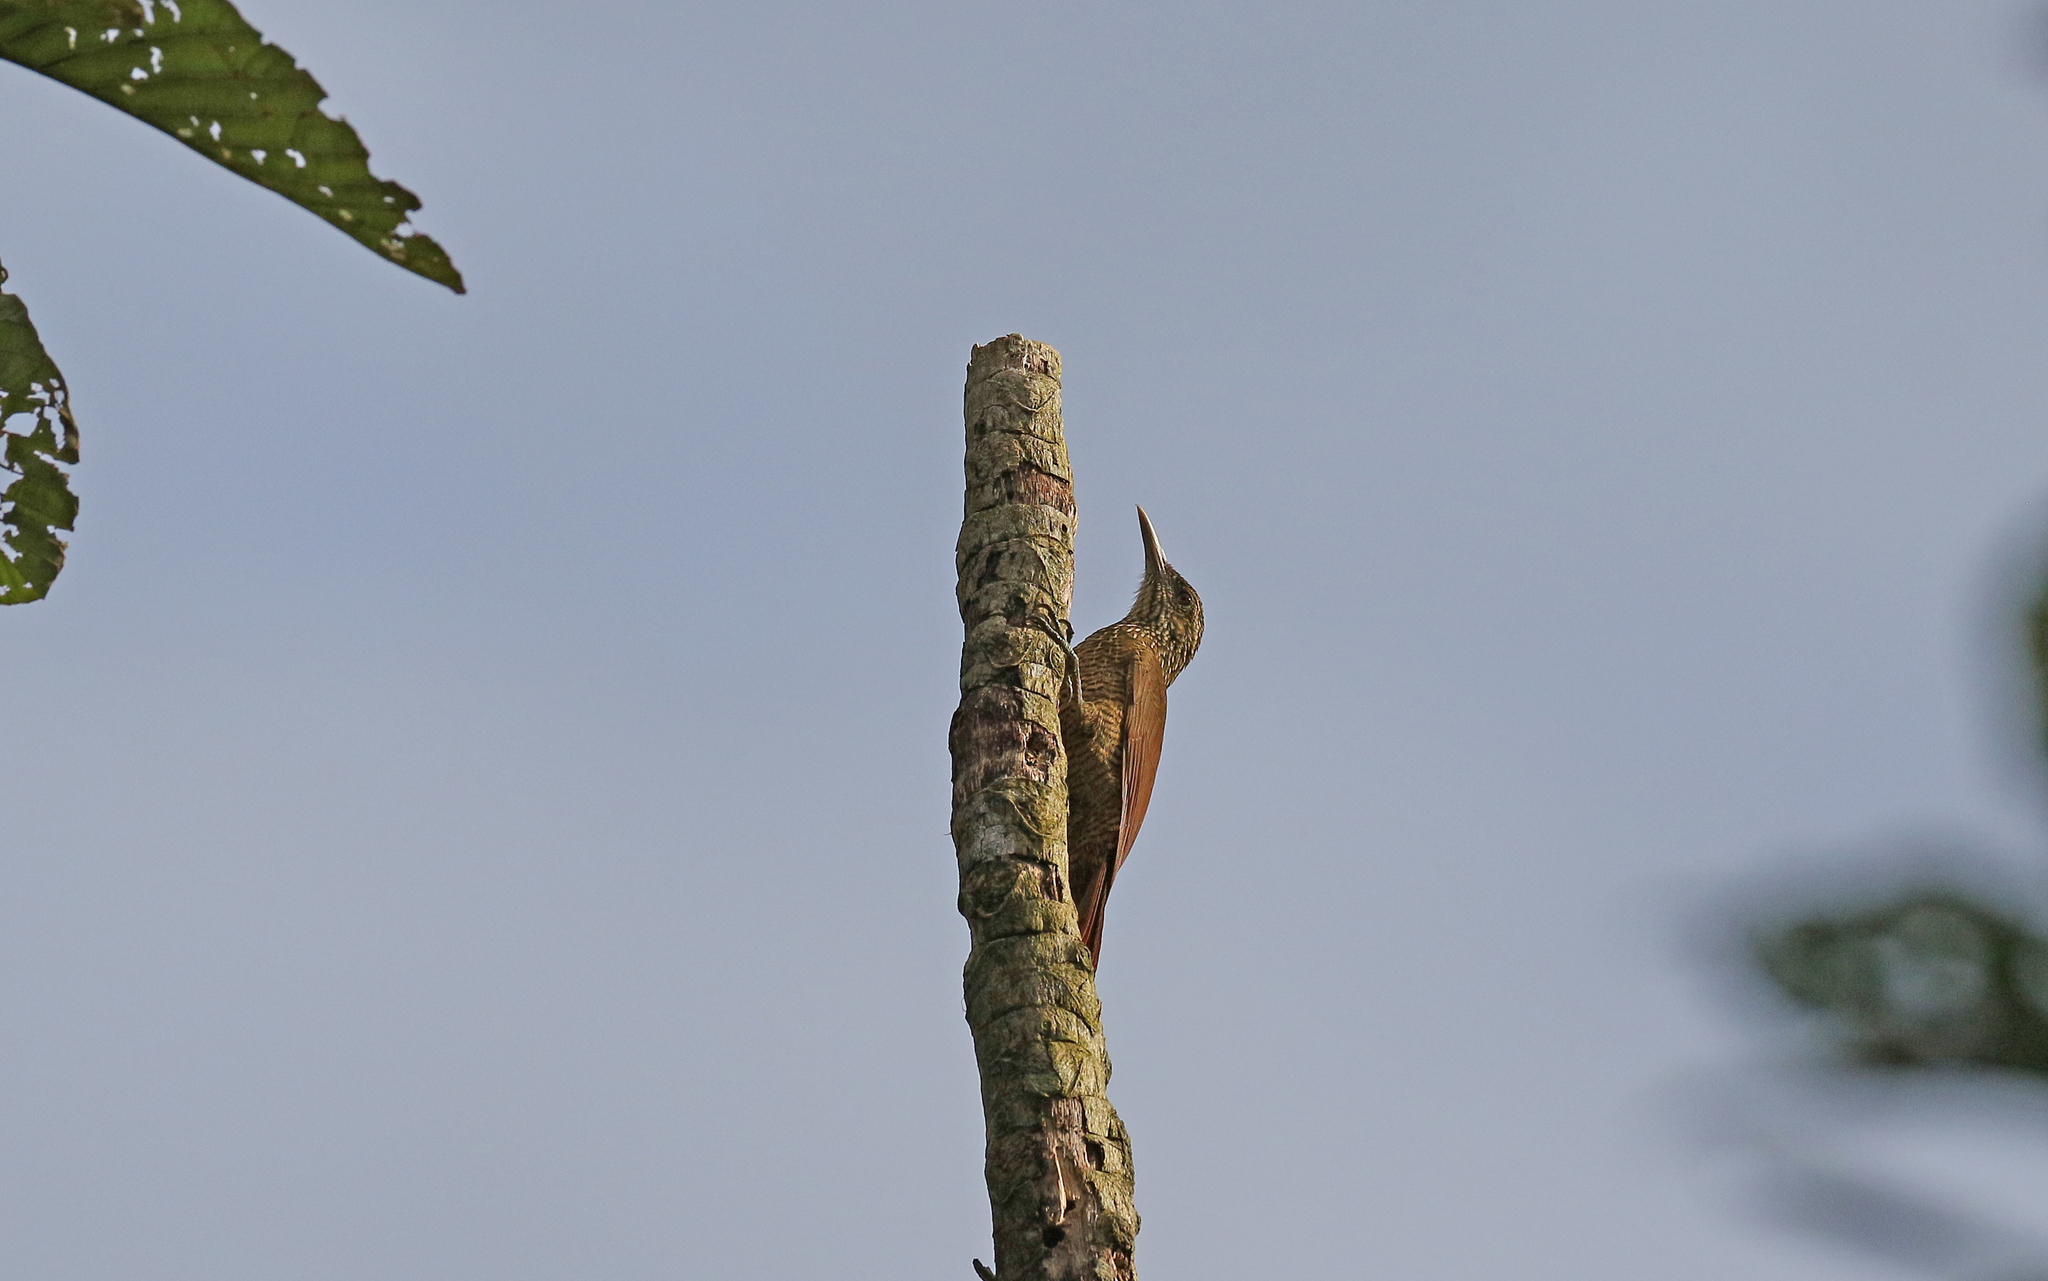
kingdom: Animalia
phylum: Chordata
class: Aves
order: Passeriformes
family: Furnariidae
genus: Dendrocolaptes
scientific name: Dendrocolaptes picumnus
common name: Black-banded woodcreeper
